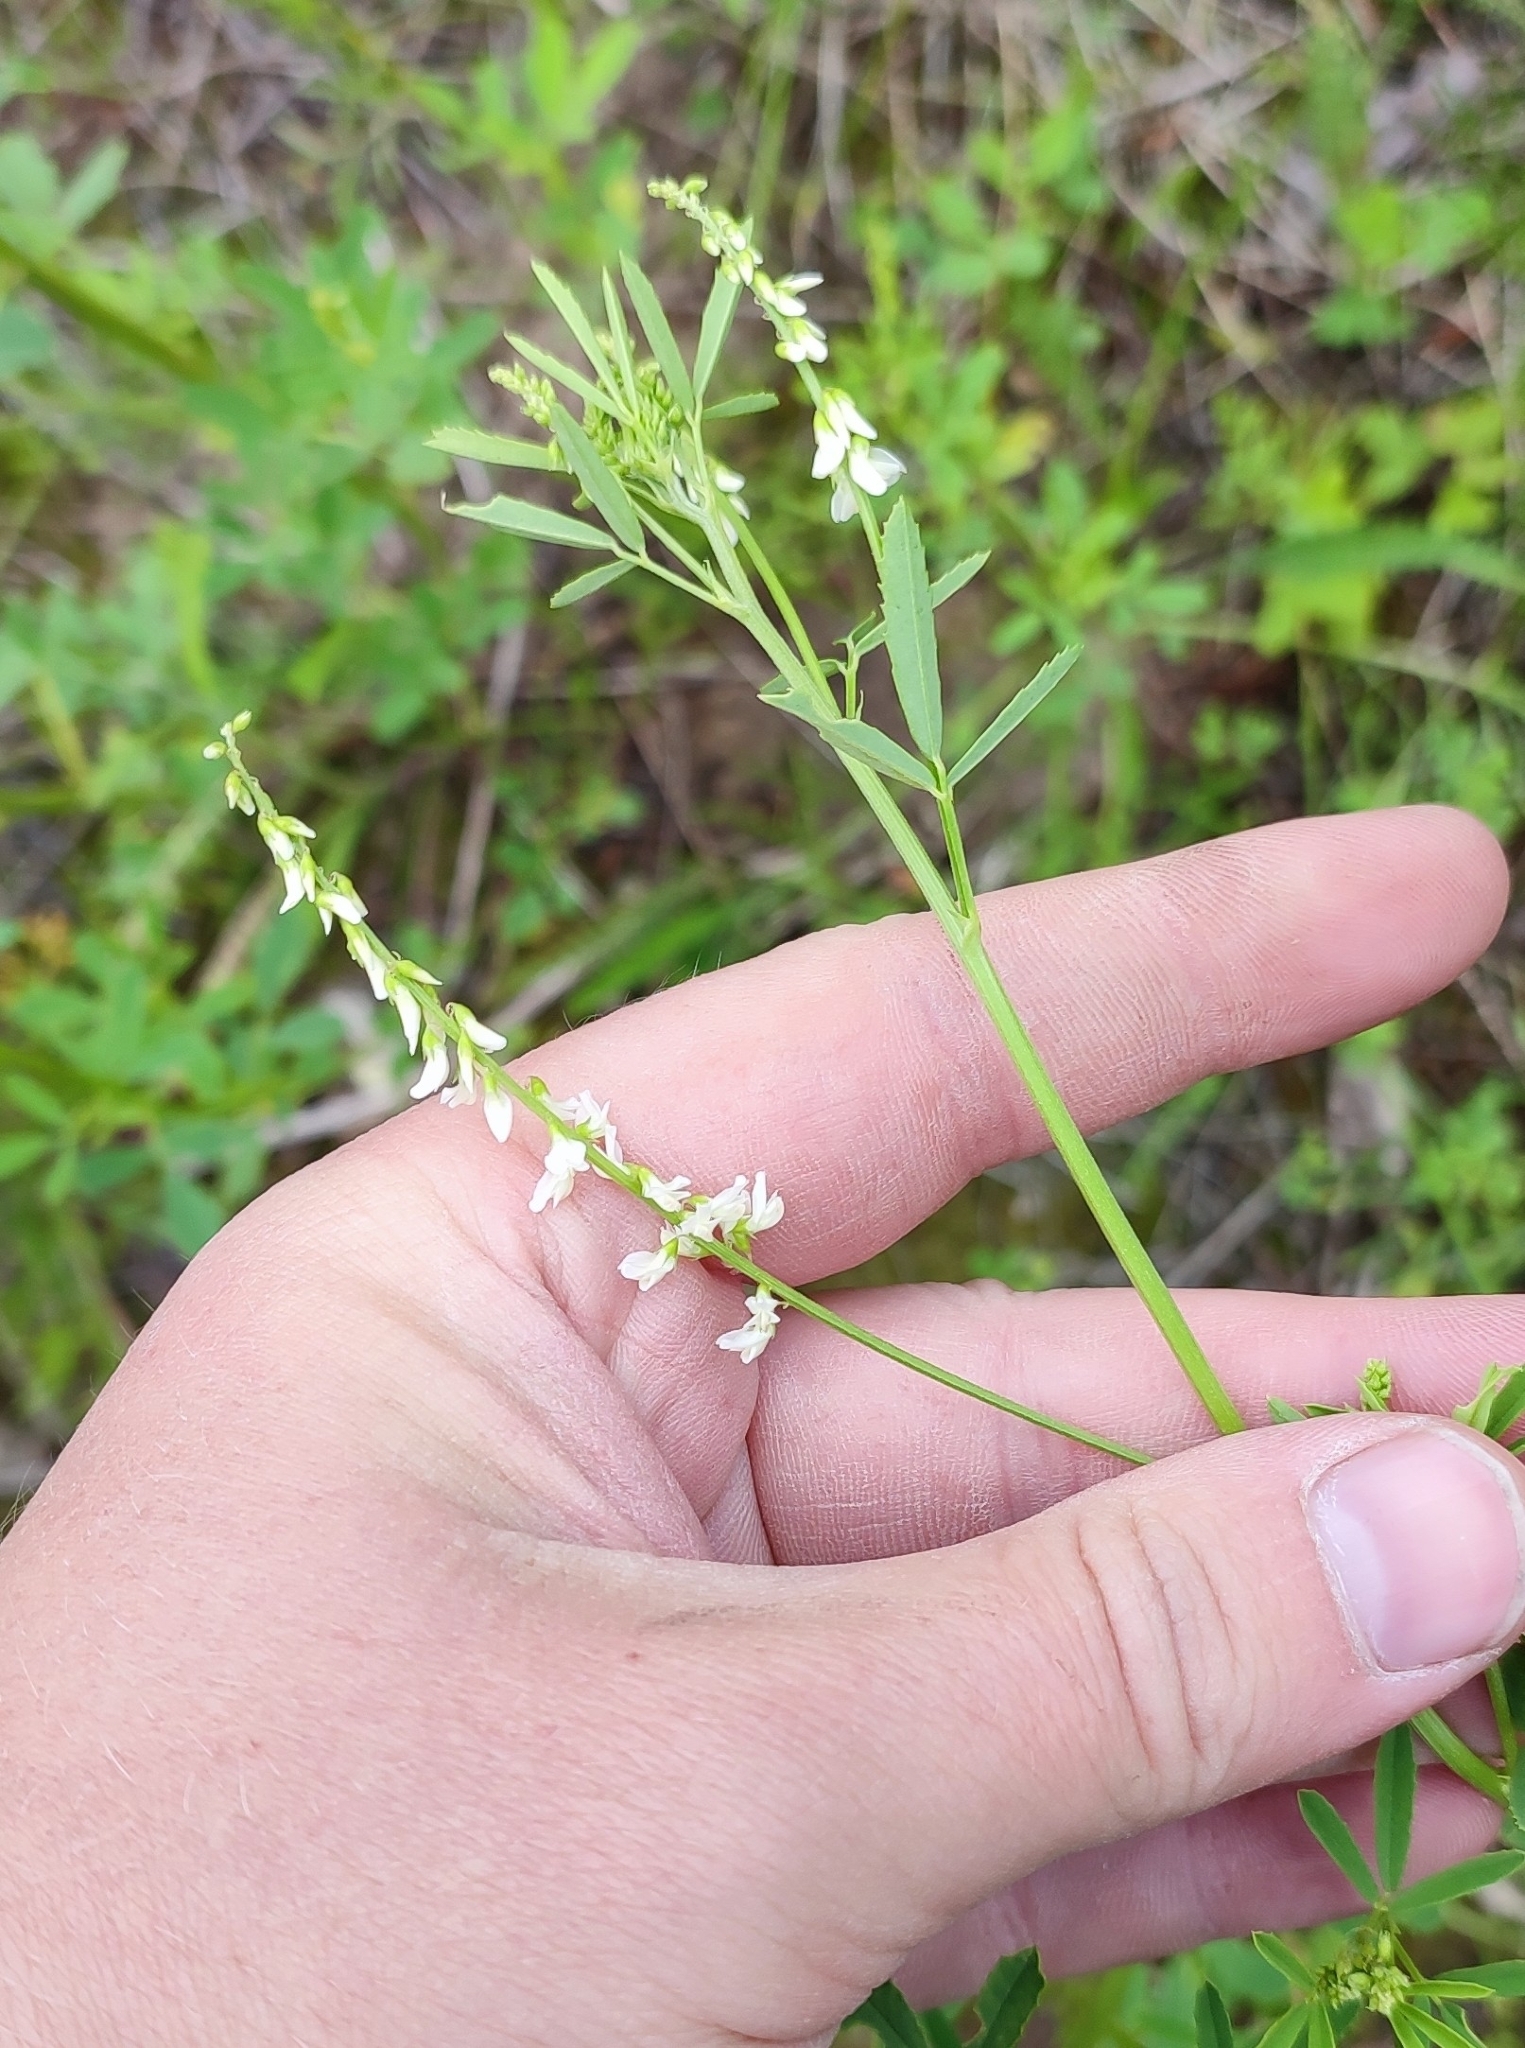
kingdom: Plantae
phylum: Tracheophyta
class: Magnoliopsida
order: Fabales
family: Fabaceae
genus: Melilotus
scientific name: Melilotus albus
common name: White melilot
